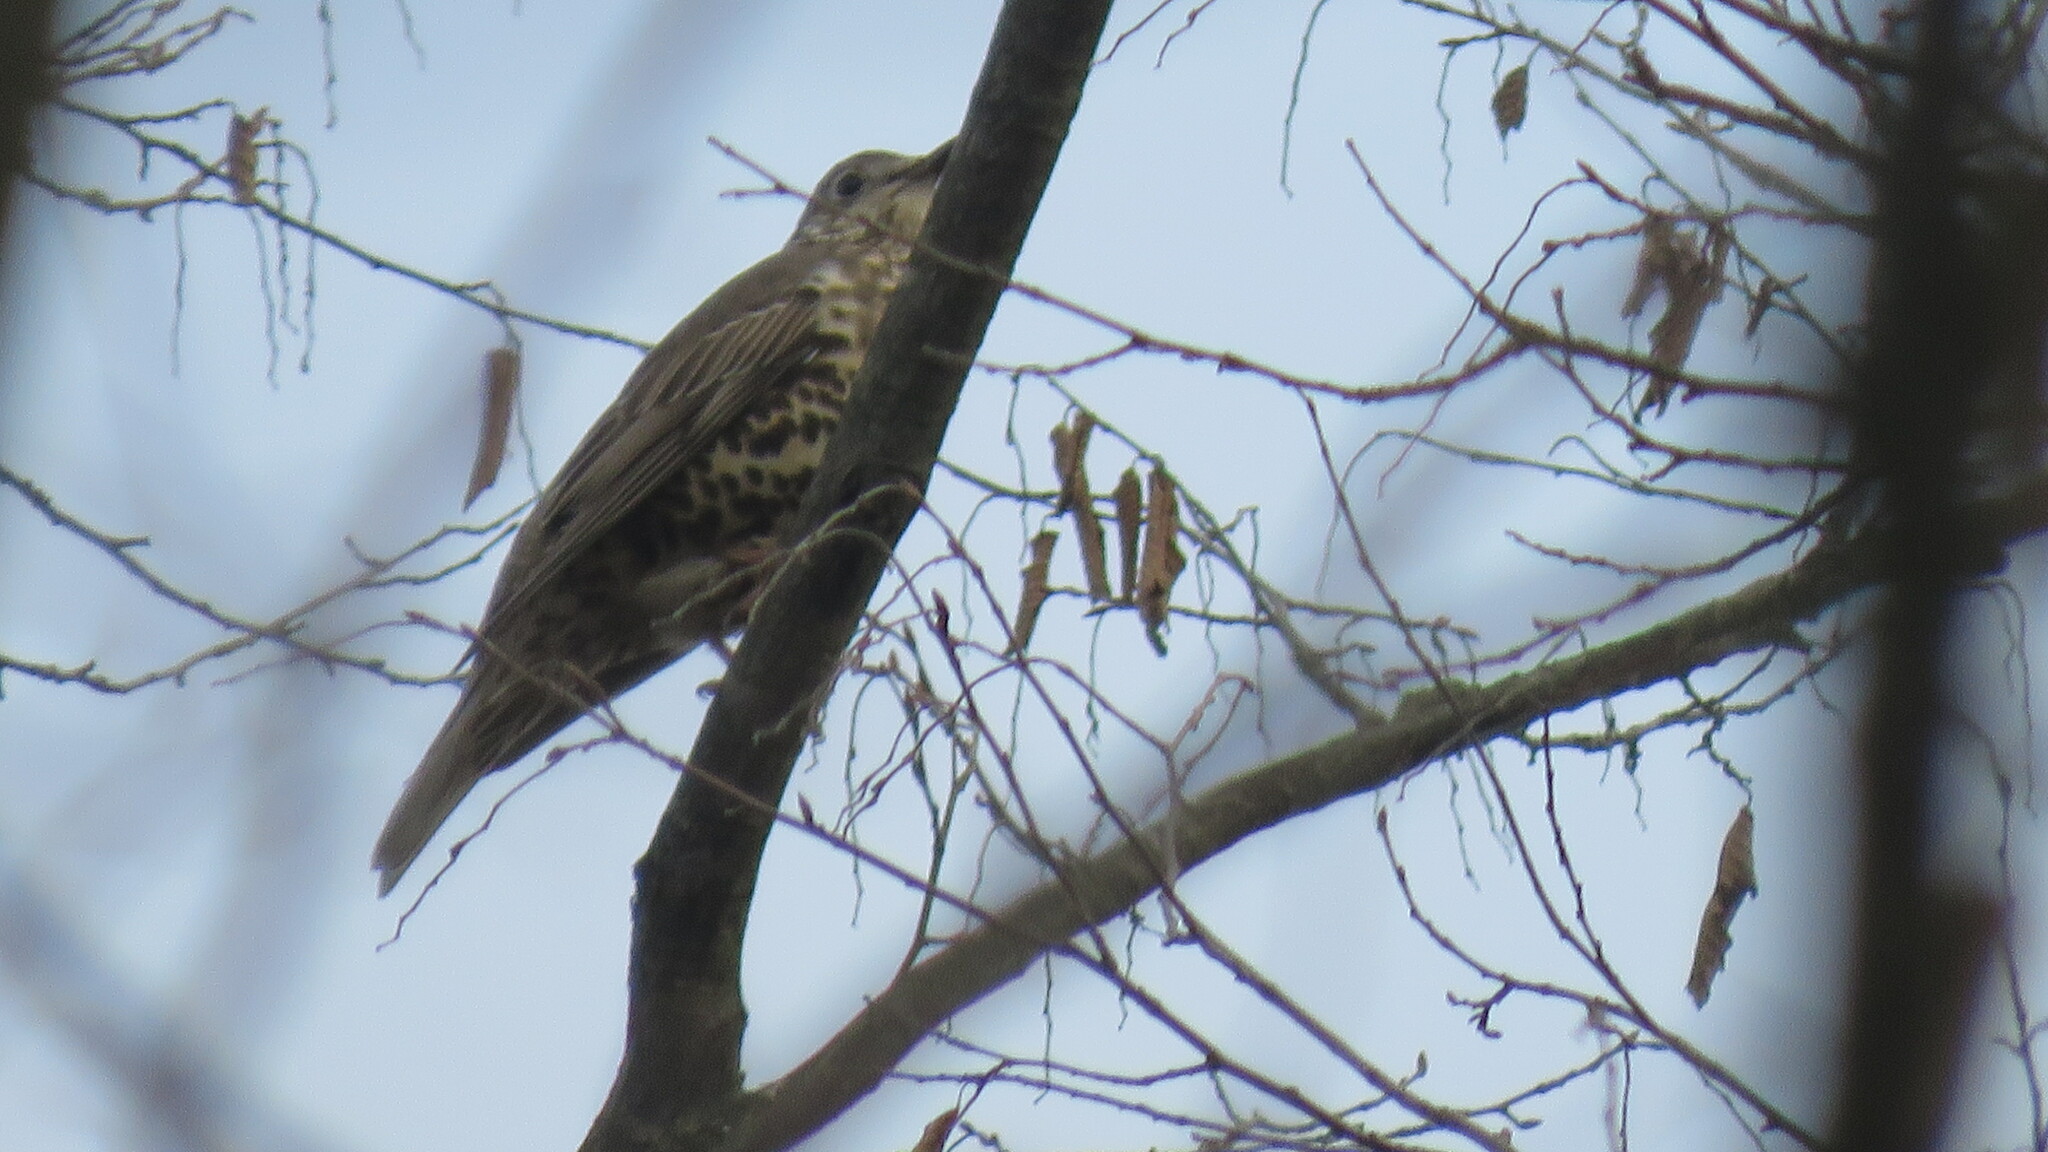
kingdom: Animalia
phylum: Chordata
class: Aves
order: Passeriformes
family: Turdidae
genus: Turdus
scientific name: Turdus viscivorus
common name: Mistle thrush
